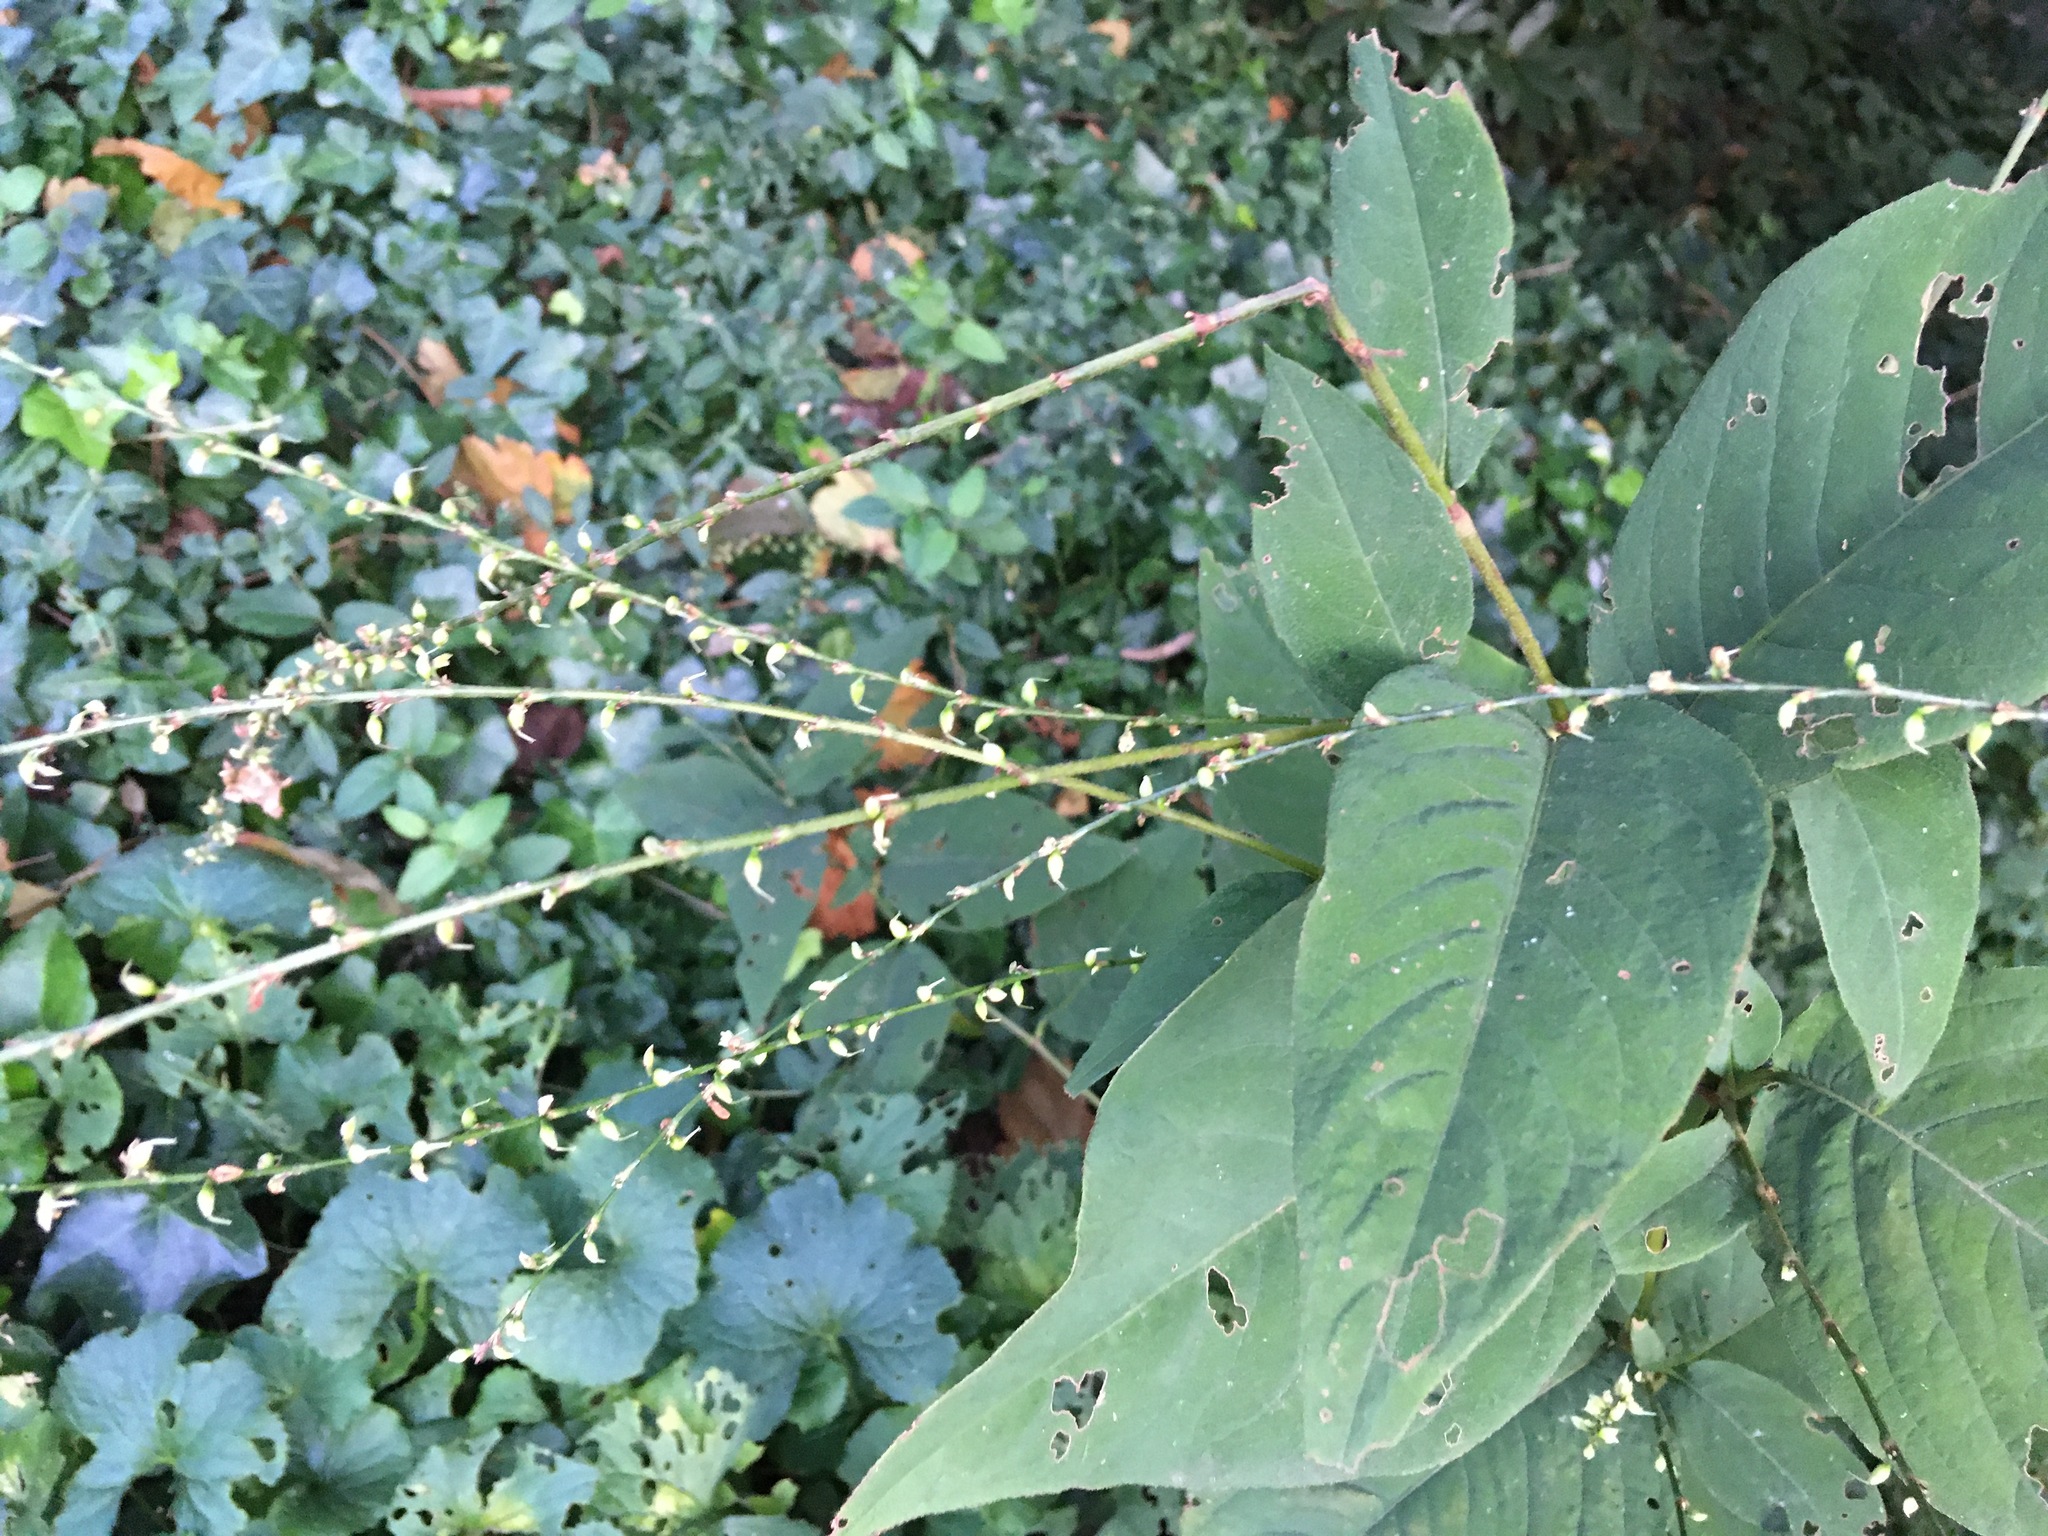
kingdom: Plantae
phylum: Tracheophyta
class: Magnoliopsida
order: Caryophyllales
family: Polygonaceae
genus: Persicaria
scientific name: Persicaria virginiana
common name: Jumpseed
